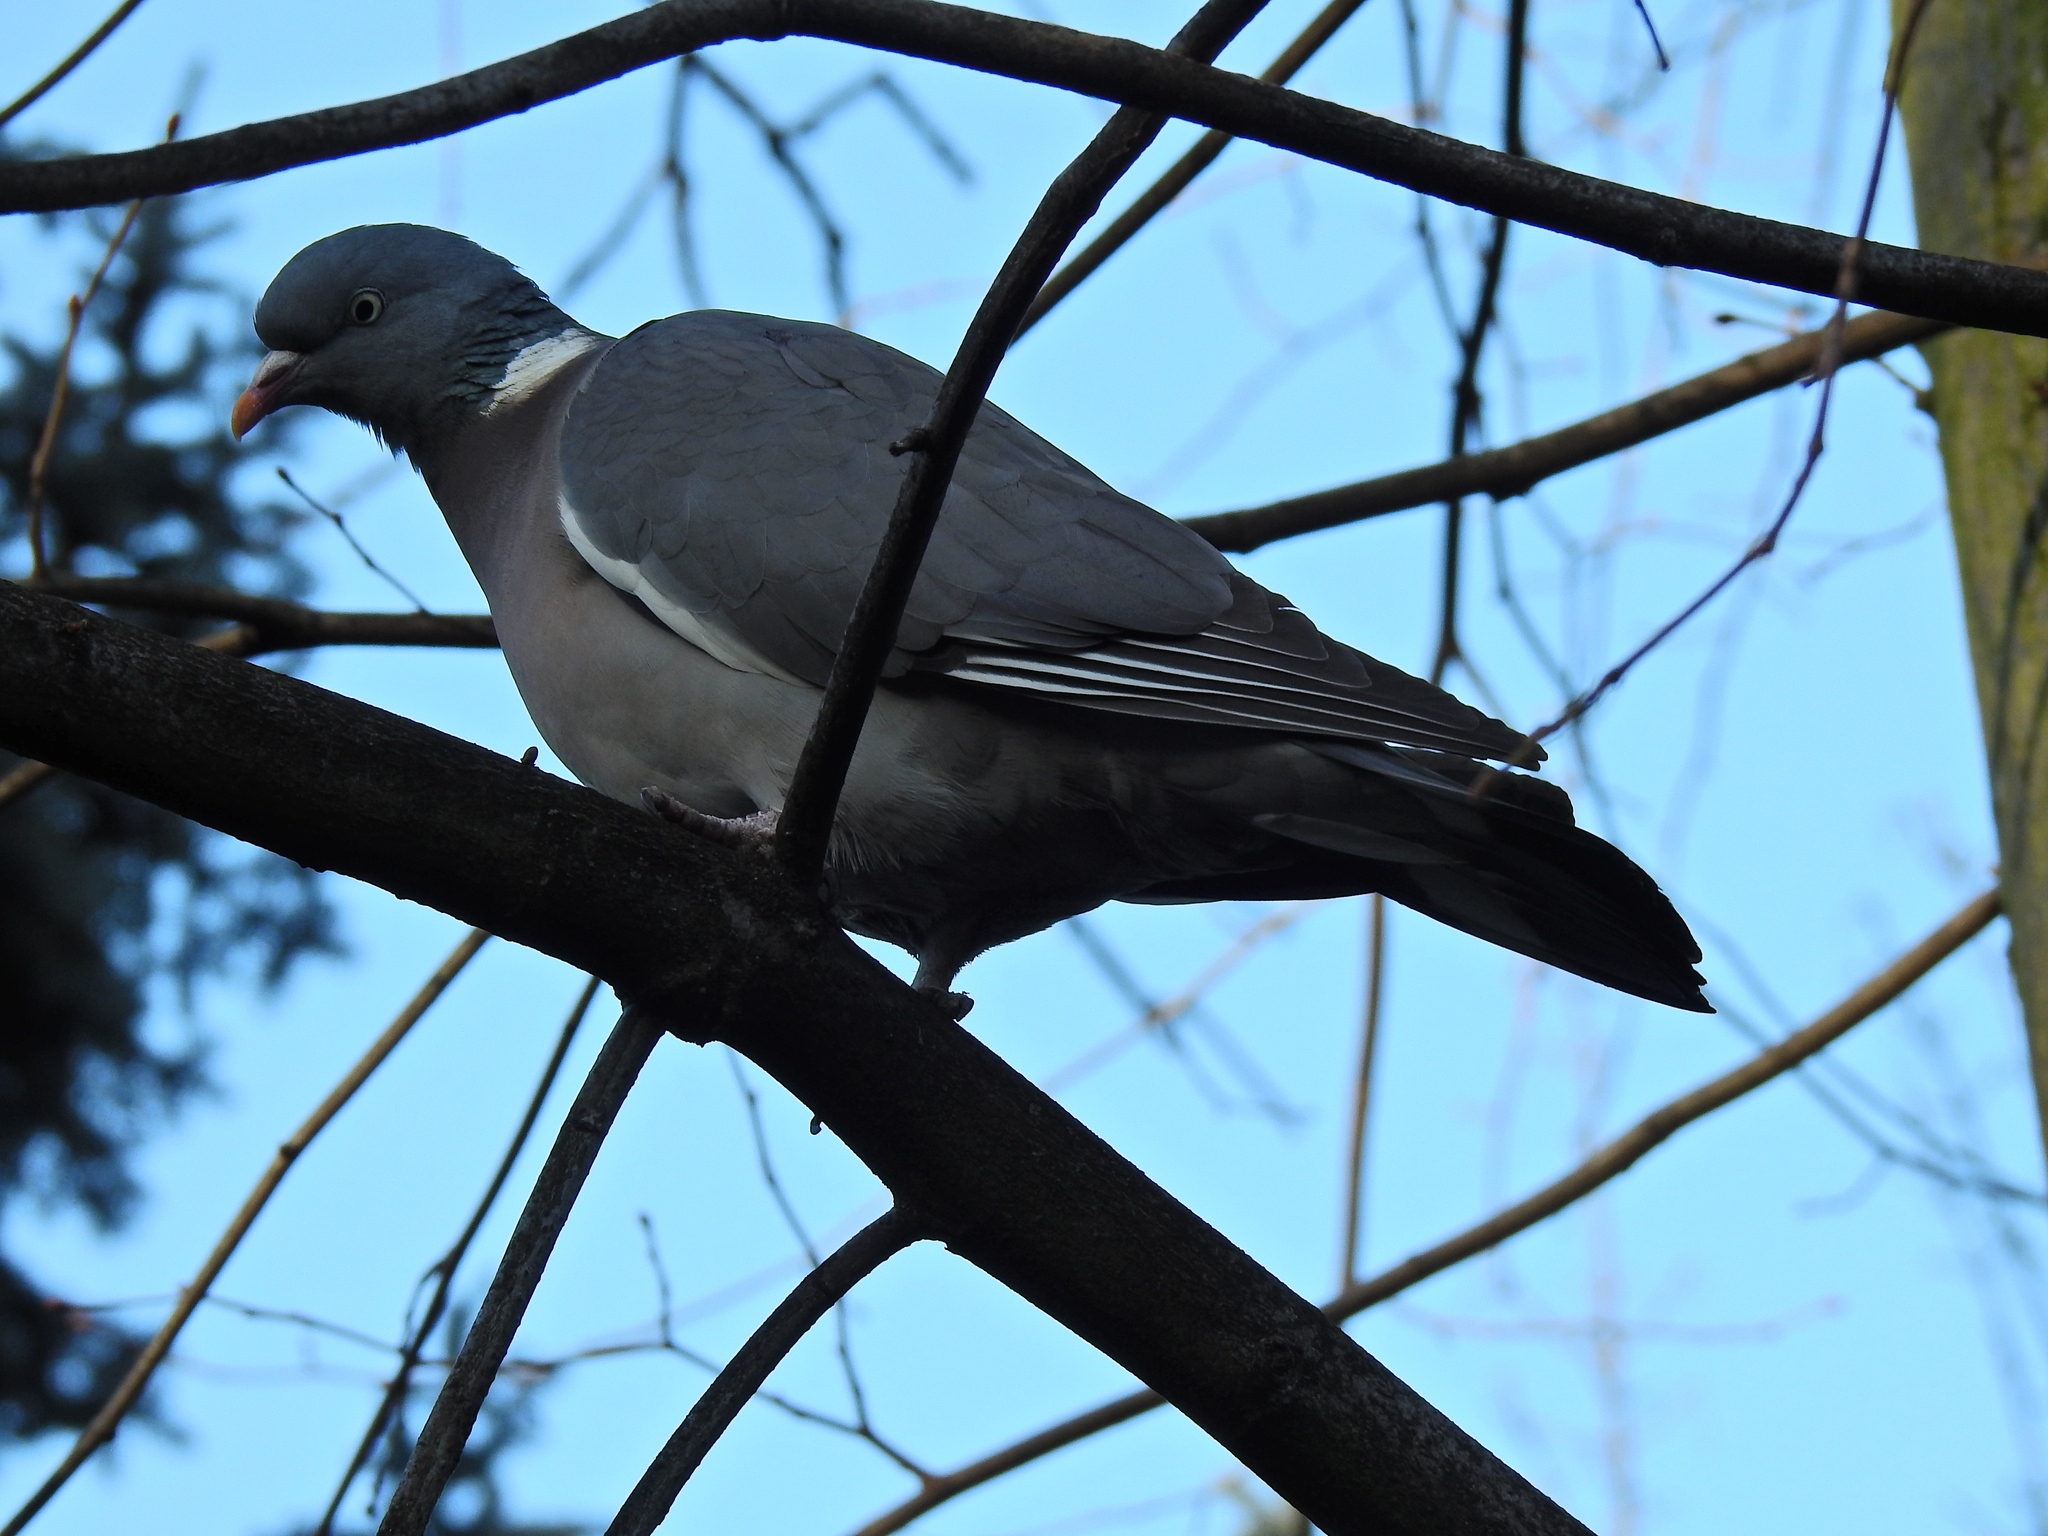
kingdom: Animalia
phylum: Chordata
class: Aves
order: Columbiformes
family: Columbidae
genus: Columba
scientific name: Columba palumbus
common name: Common wood pigeon
